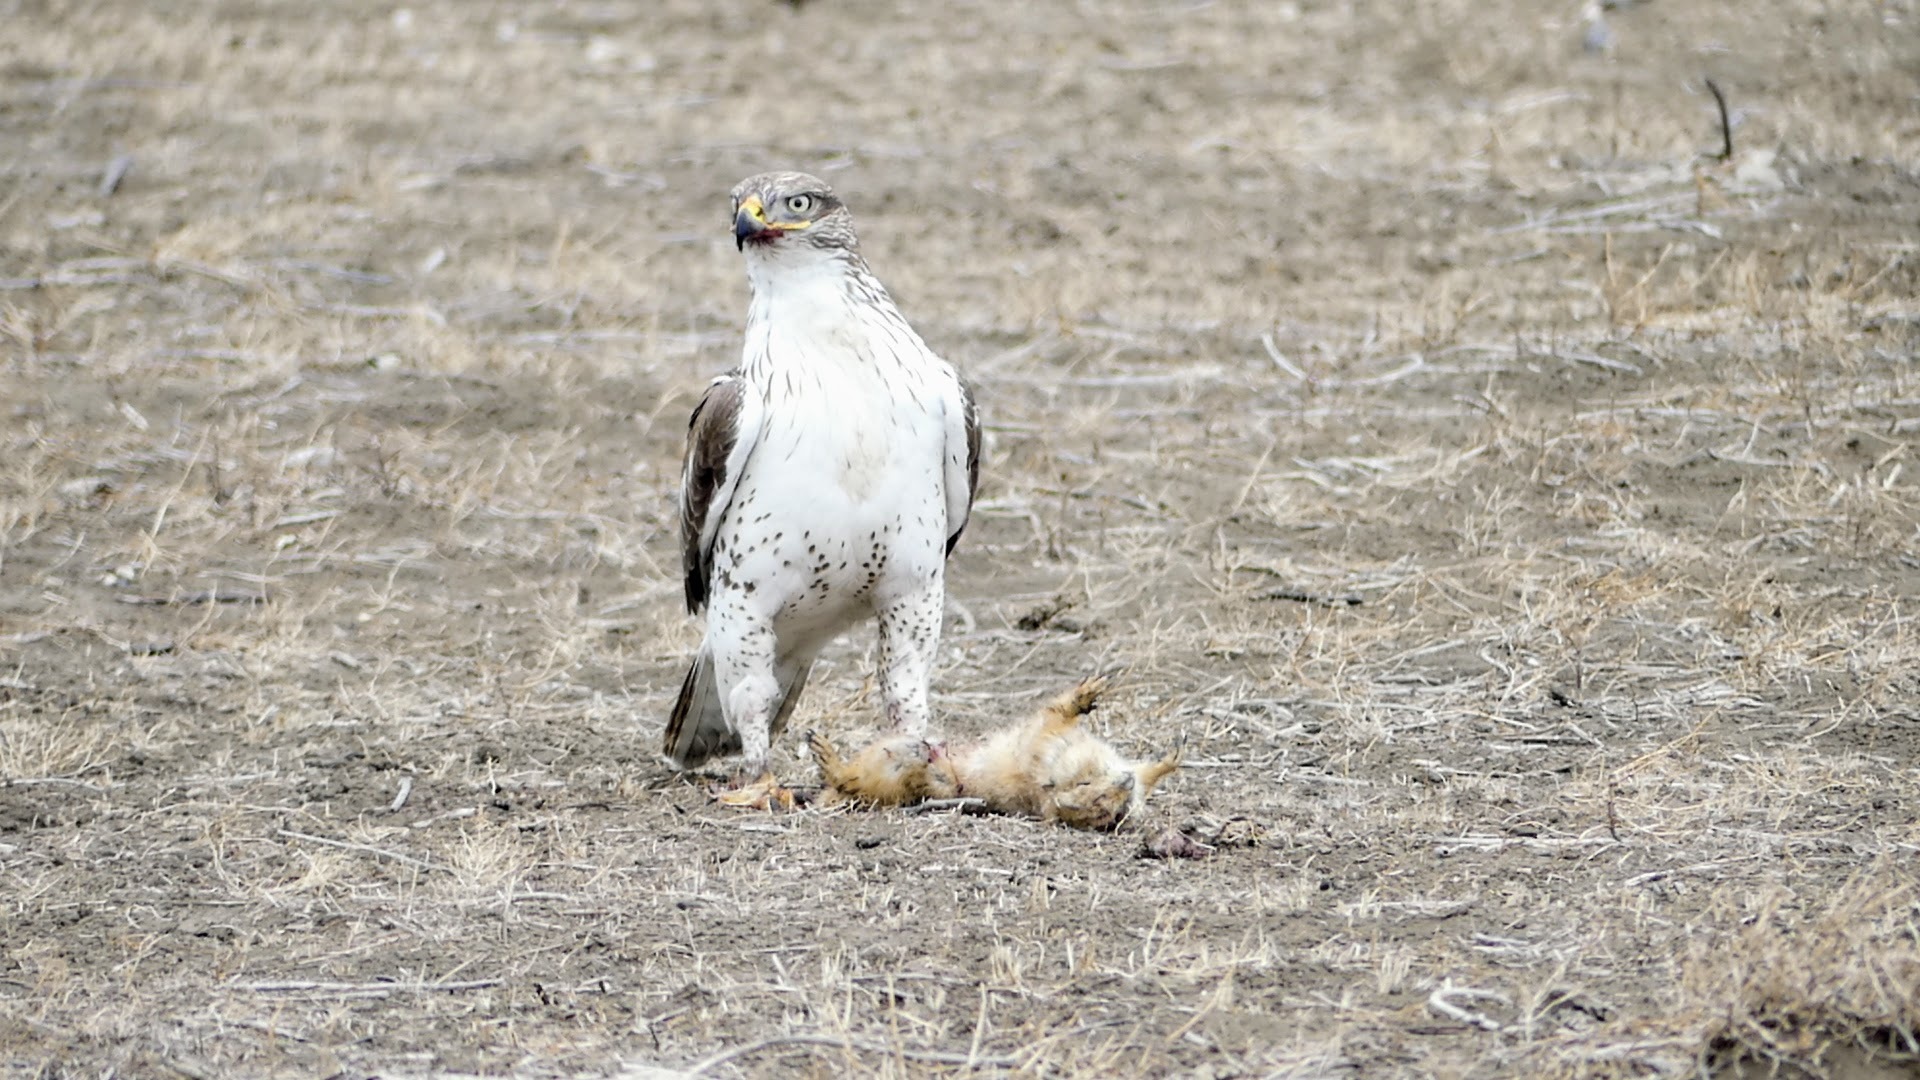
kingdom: Animalia
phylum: Chordata
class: Aves
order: Accipitriformes
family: Accipitridae
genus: Buteo
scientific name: Buteo regalis
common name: Ferruginous hawk
